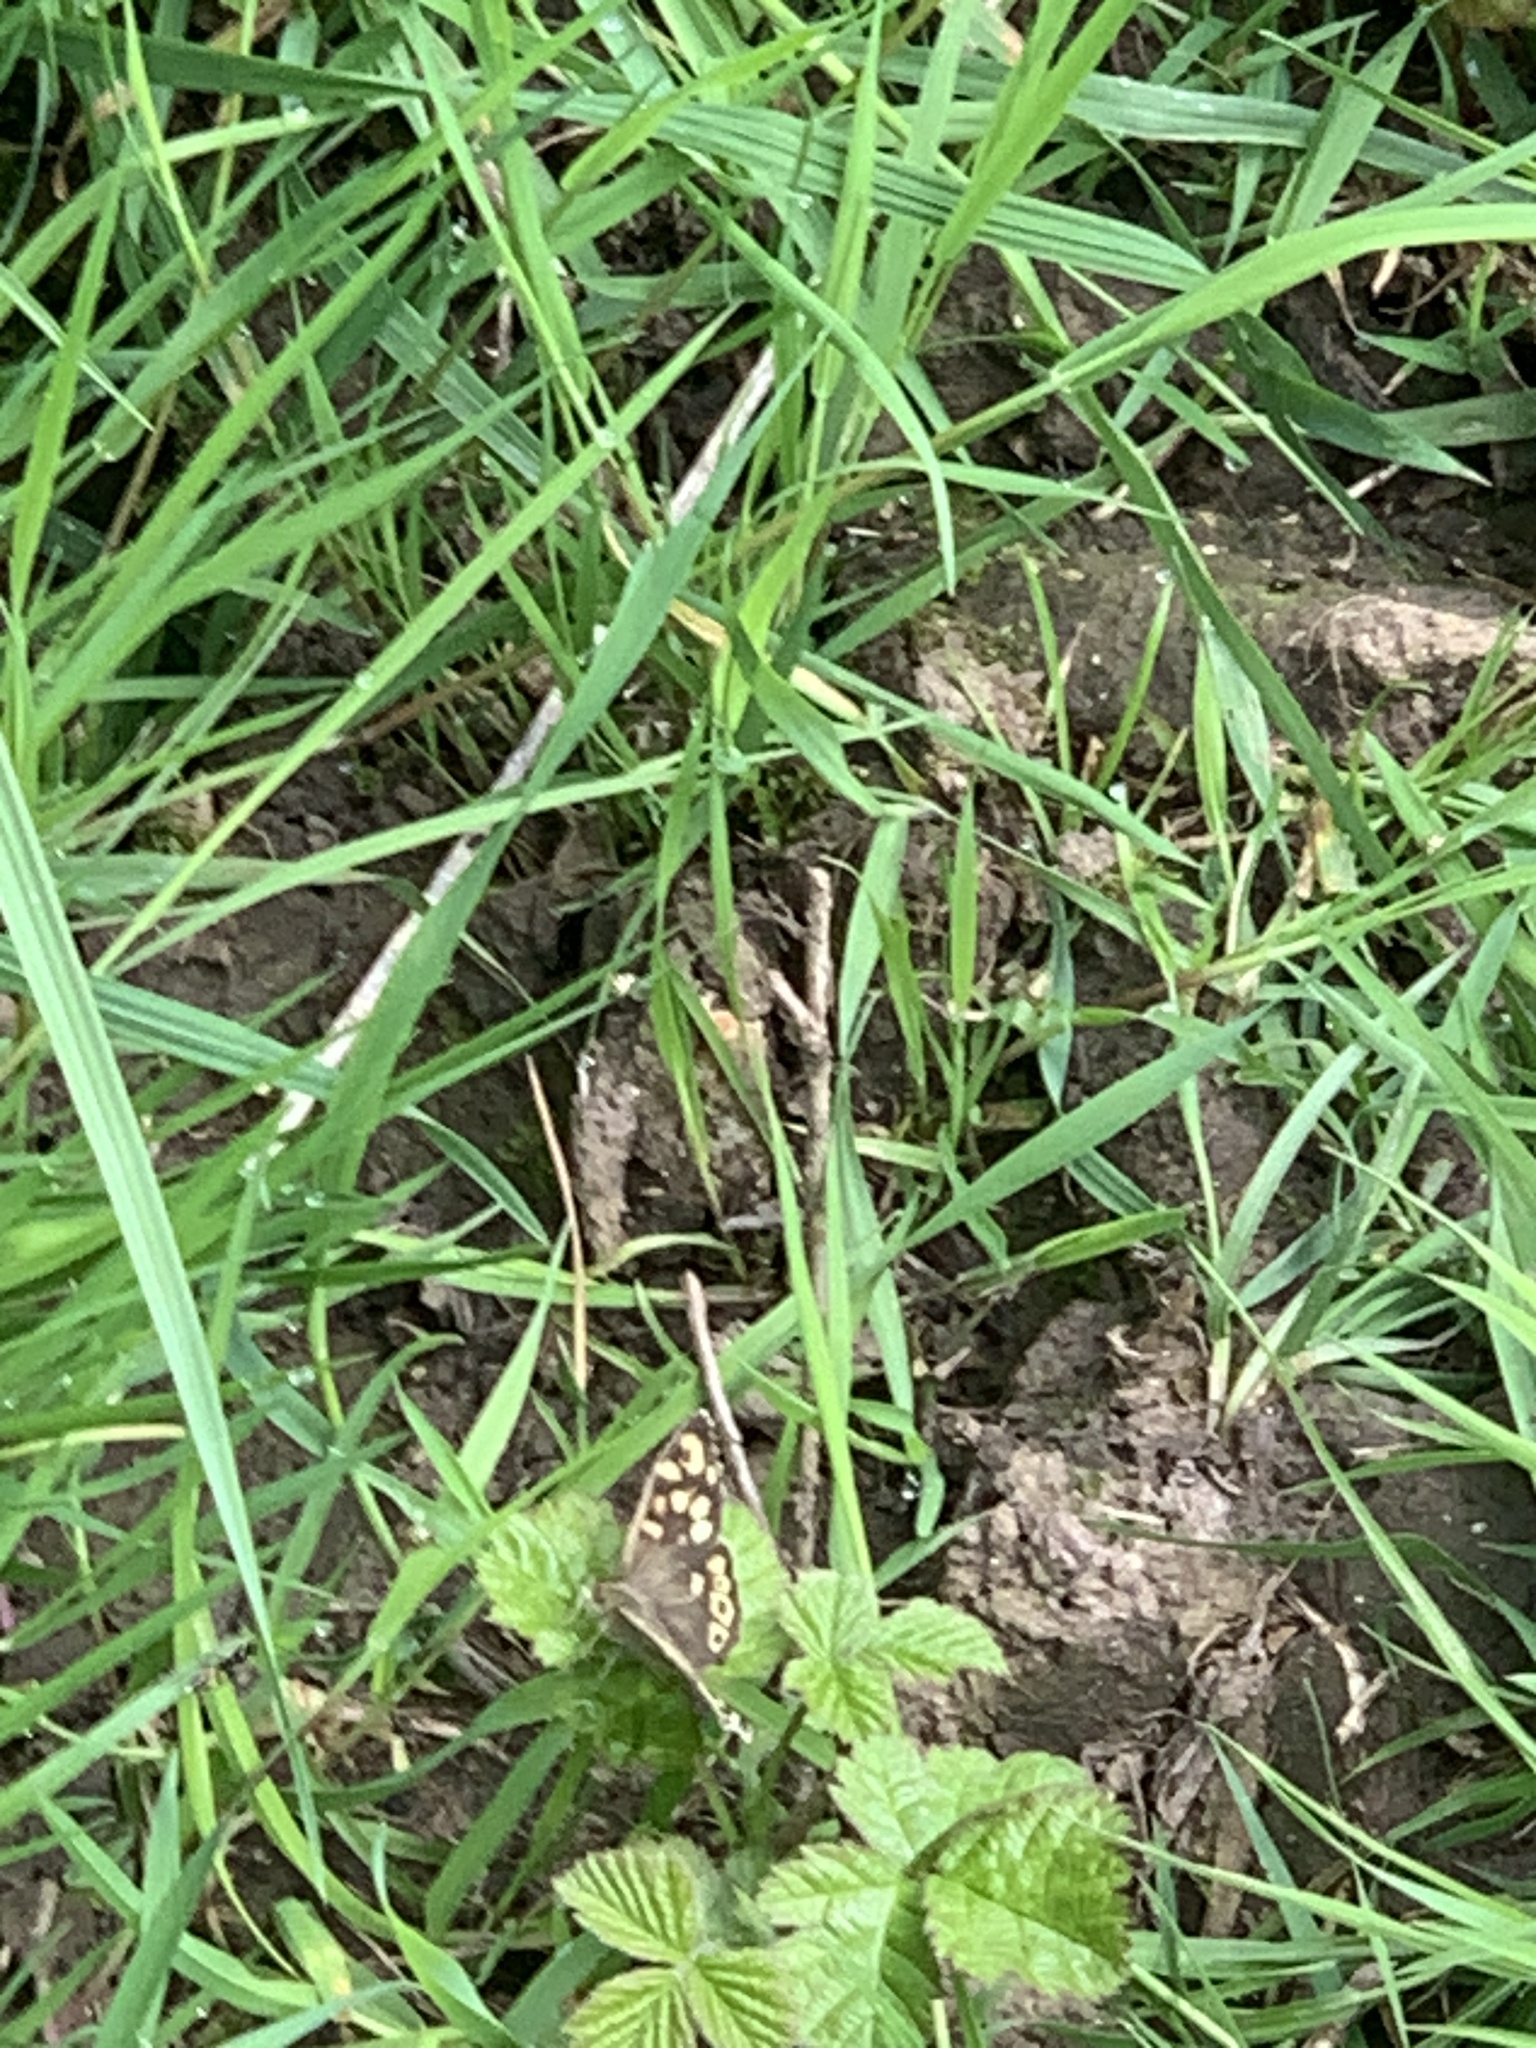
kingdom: Animalia
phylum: Arthropoda
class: Insecta
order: Lepidoptera
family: Nymphalidae
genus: Pararge
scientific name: Pararge aegeria
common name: Speckled wood
